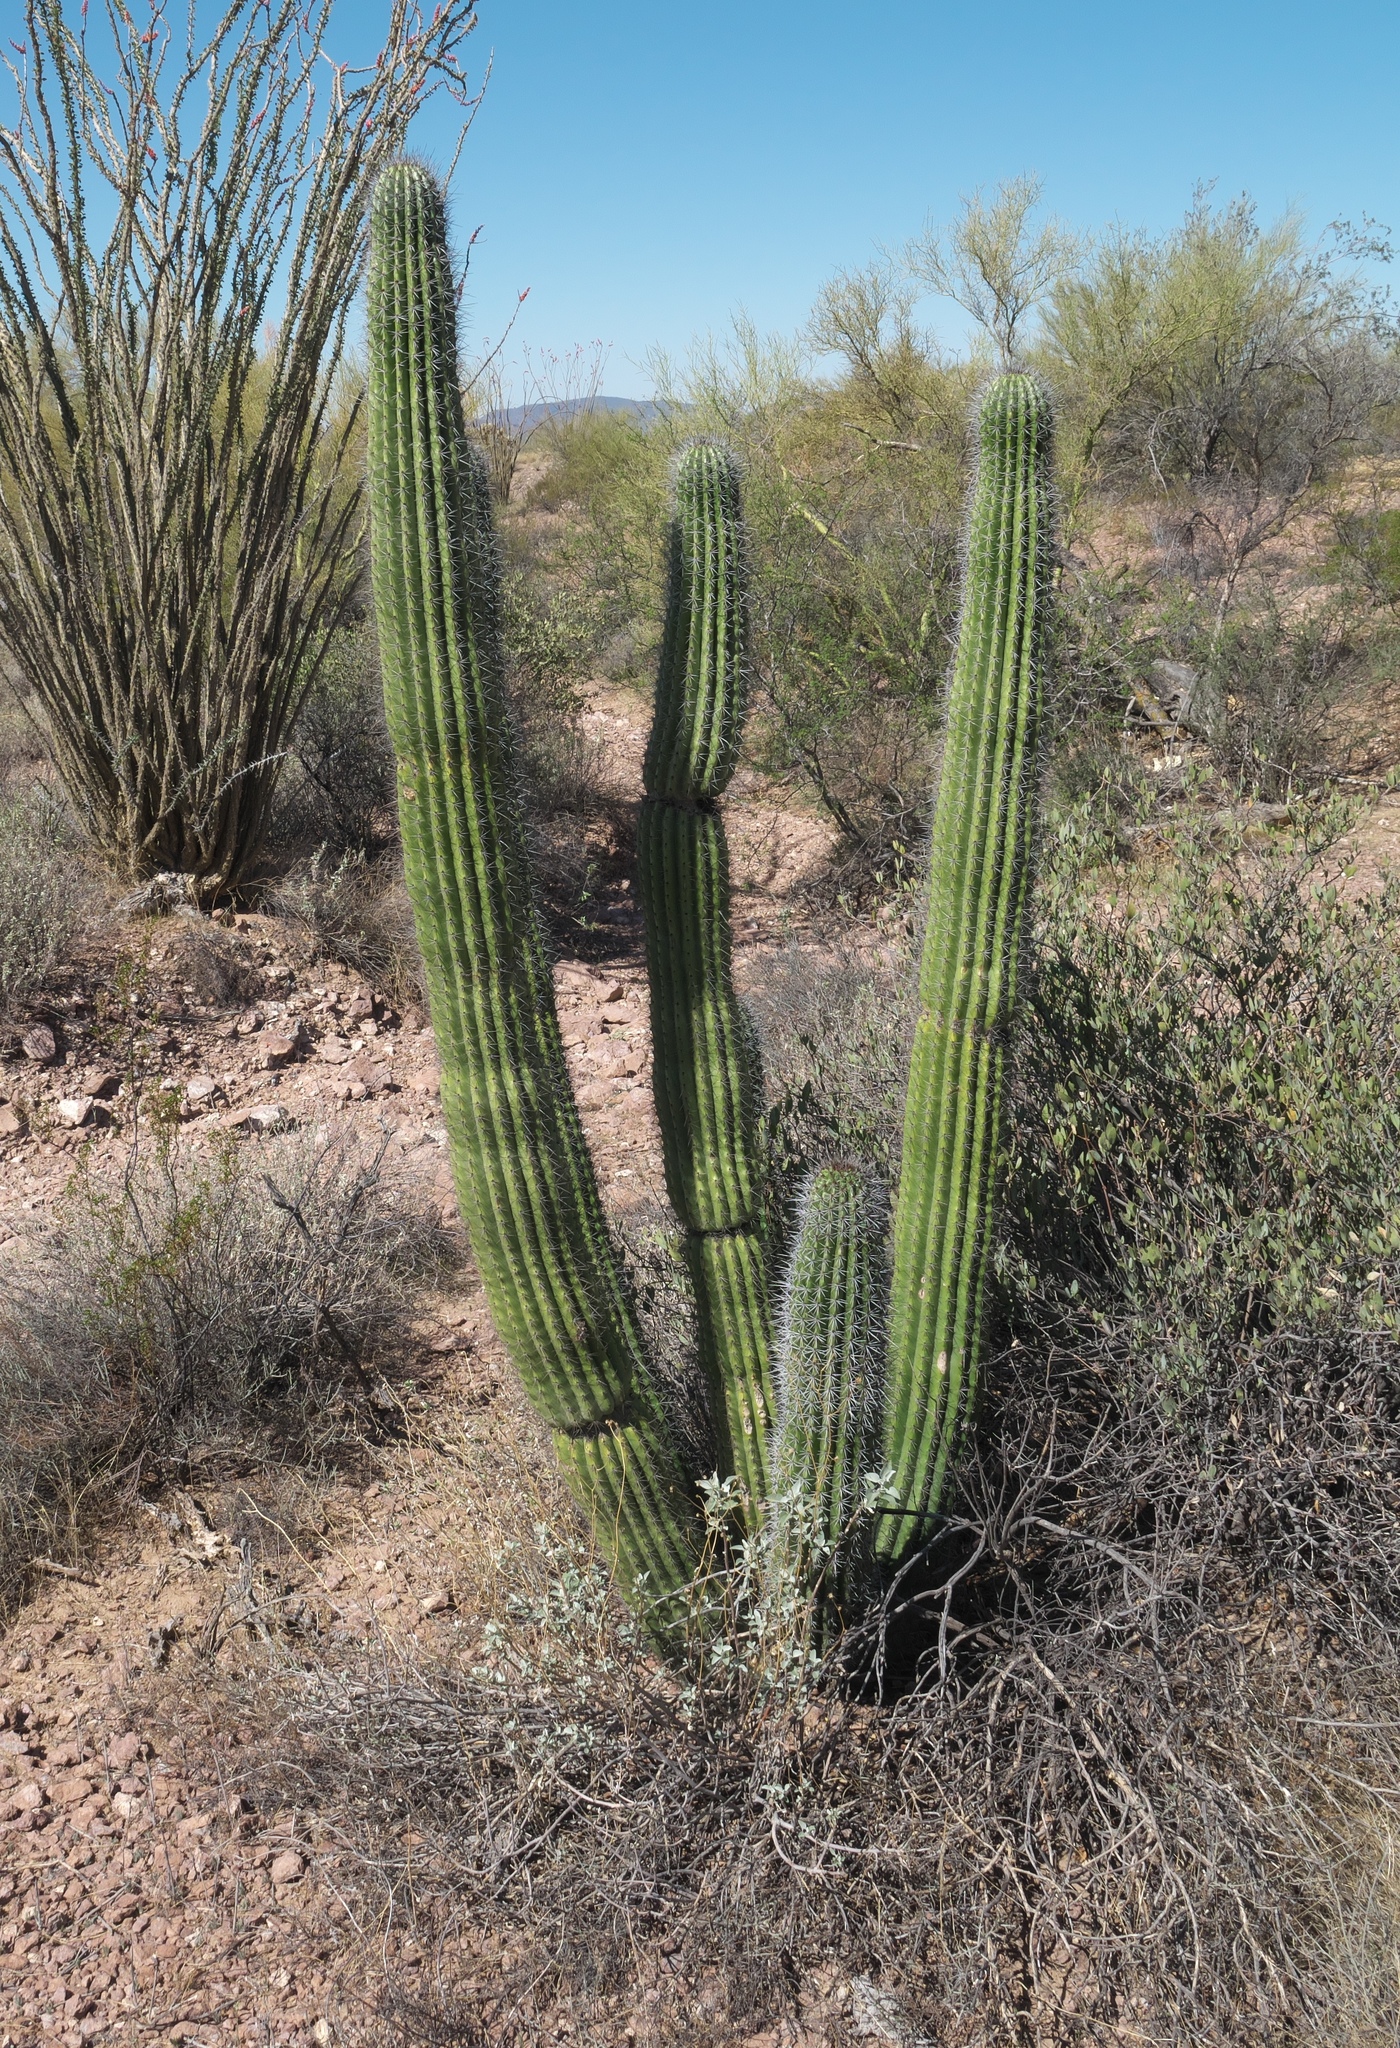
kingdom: Plantae
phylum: Tracheophyta
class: Magnoliopsida
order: Caryophyllales
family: Cactaceae
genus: Stenocereus
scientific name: Stenocereus thurberi
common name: Organ pipe cactus
